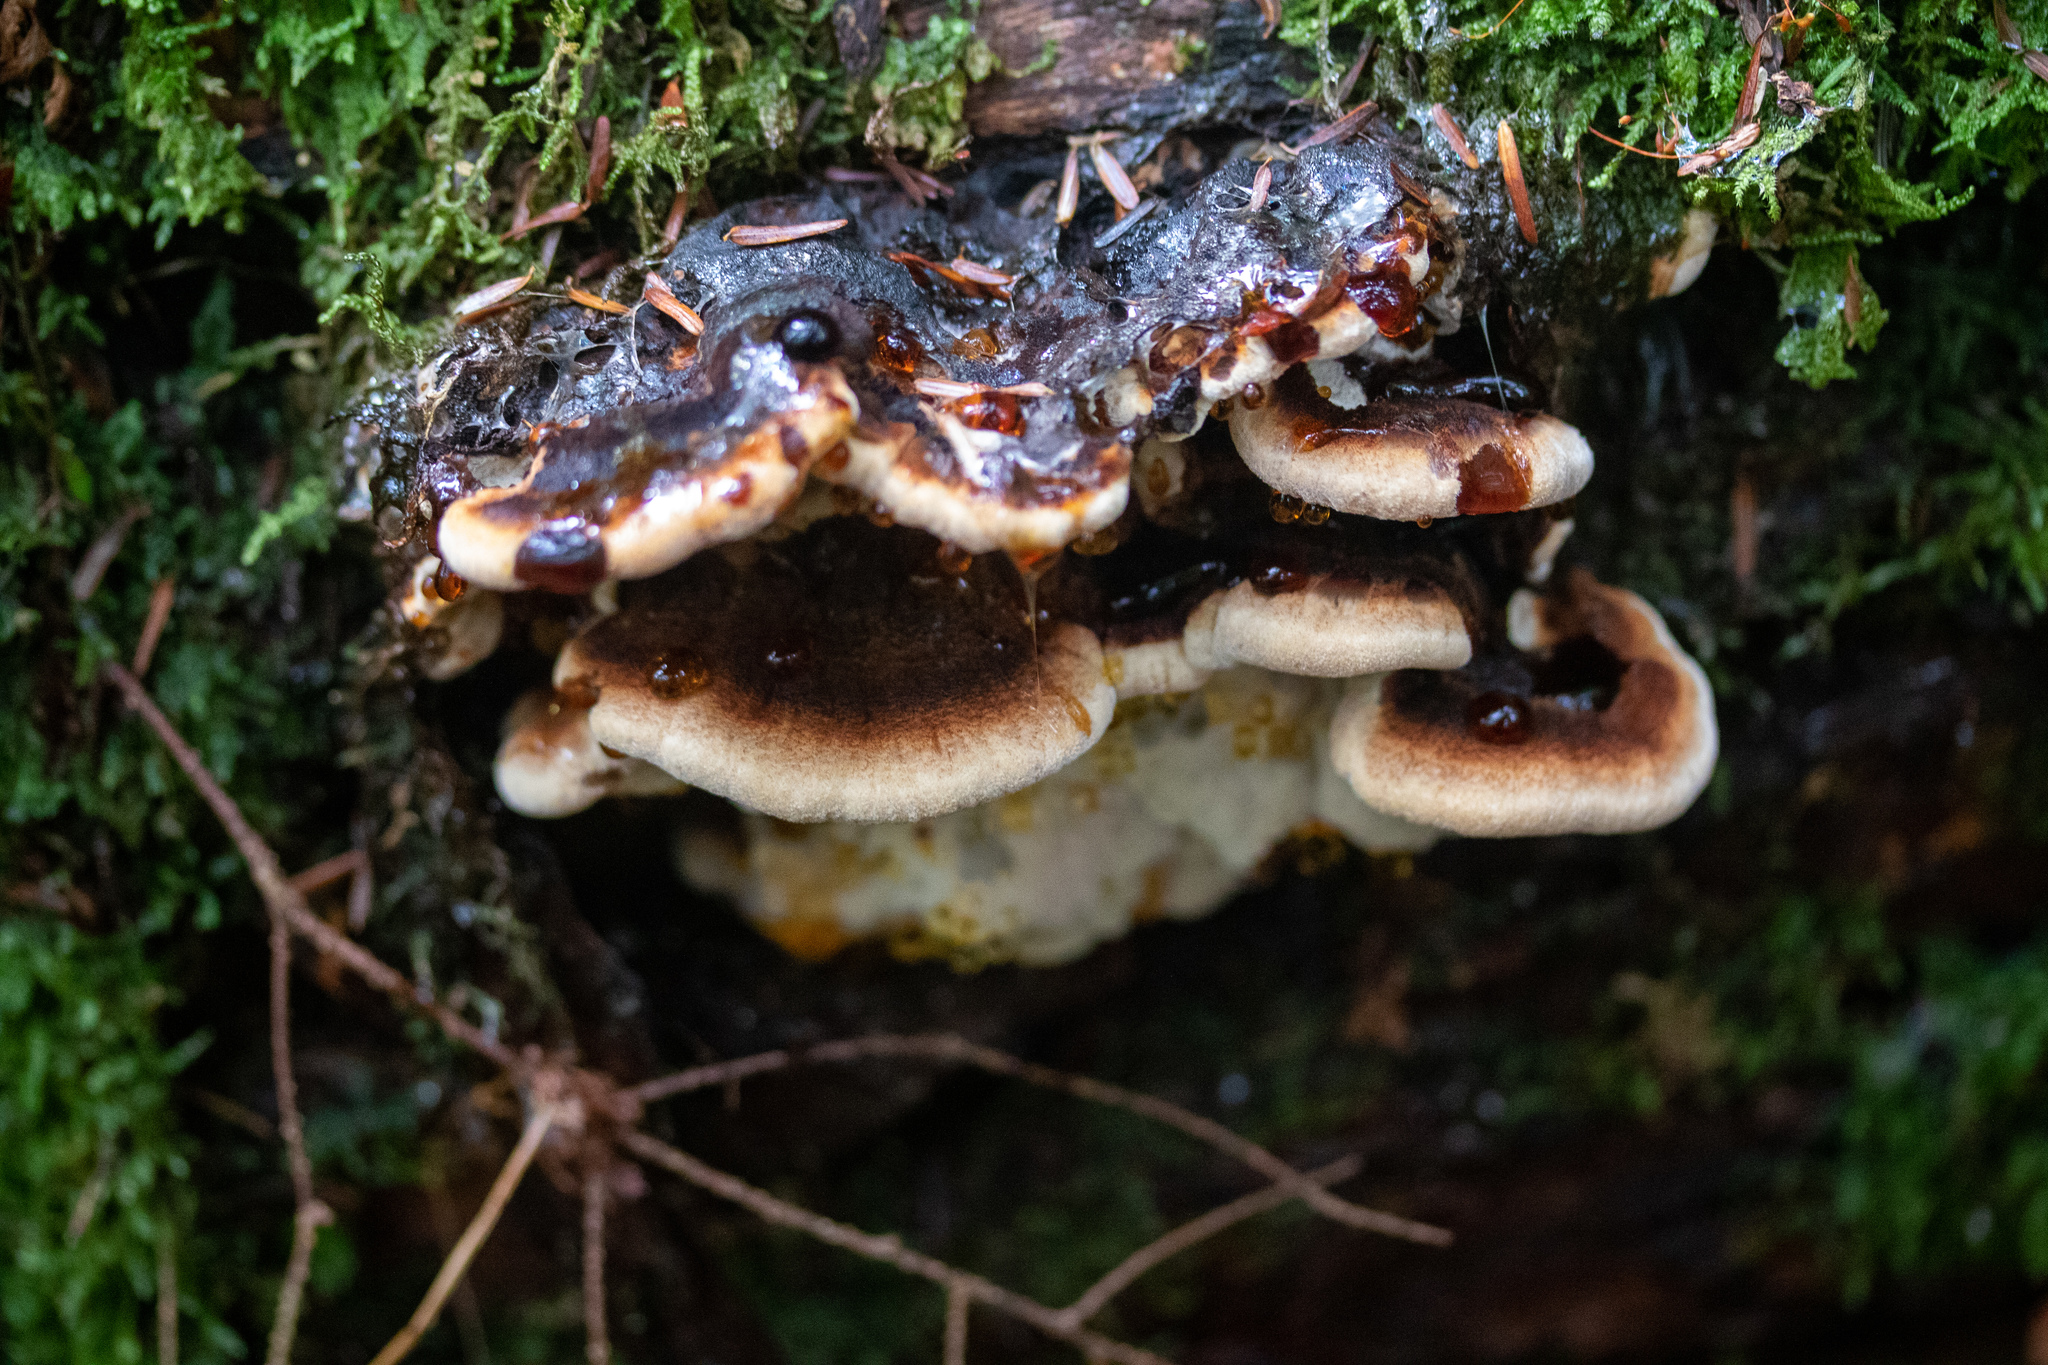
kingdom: Fungi
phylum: Basidiomycota
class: Agaricomycetes
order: Polyporales
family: Ischnodermataceae
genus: Ischnoderma
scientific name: Ischnoderma benzoinum
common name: Benzoin bracket
